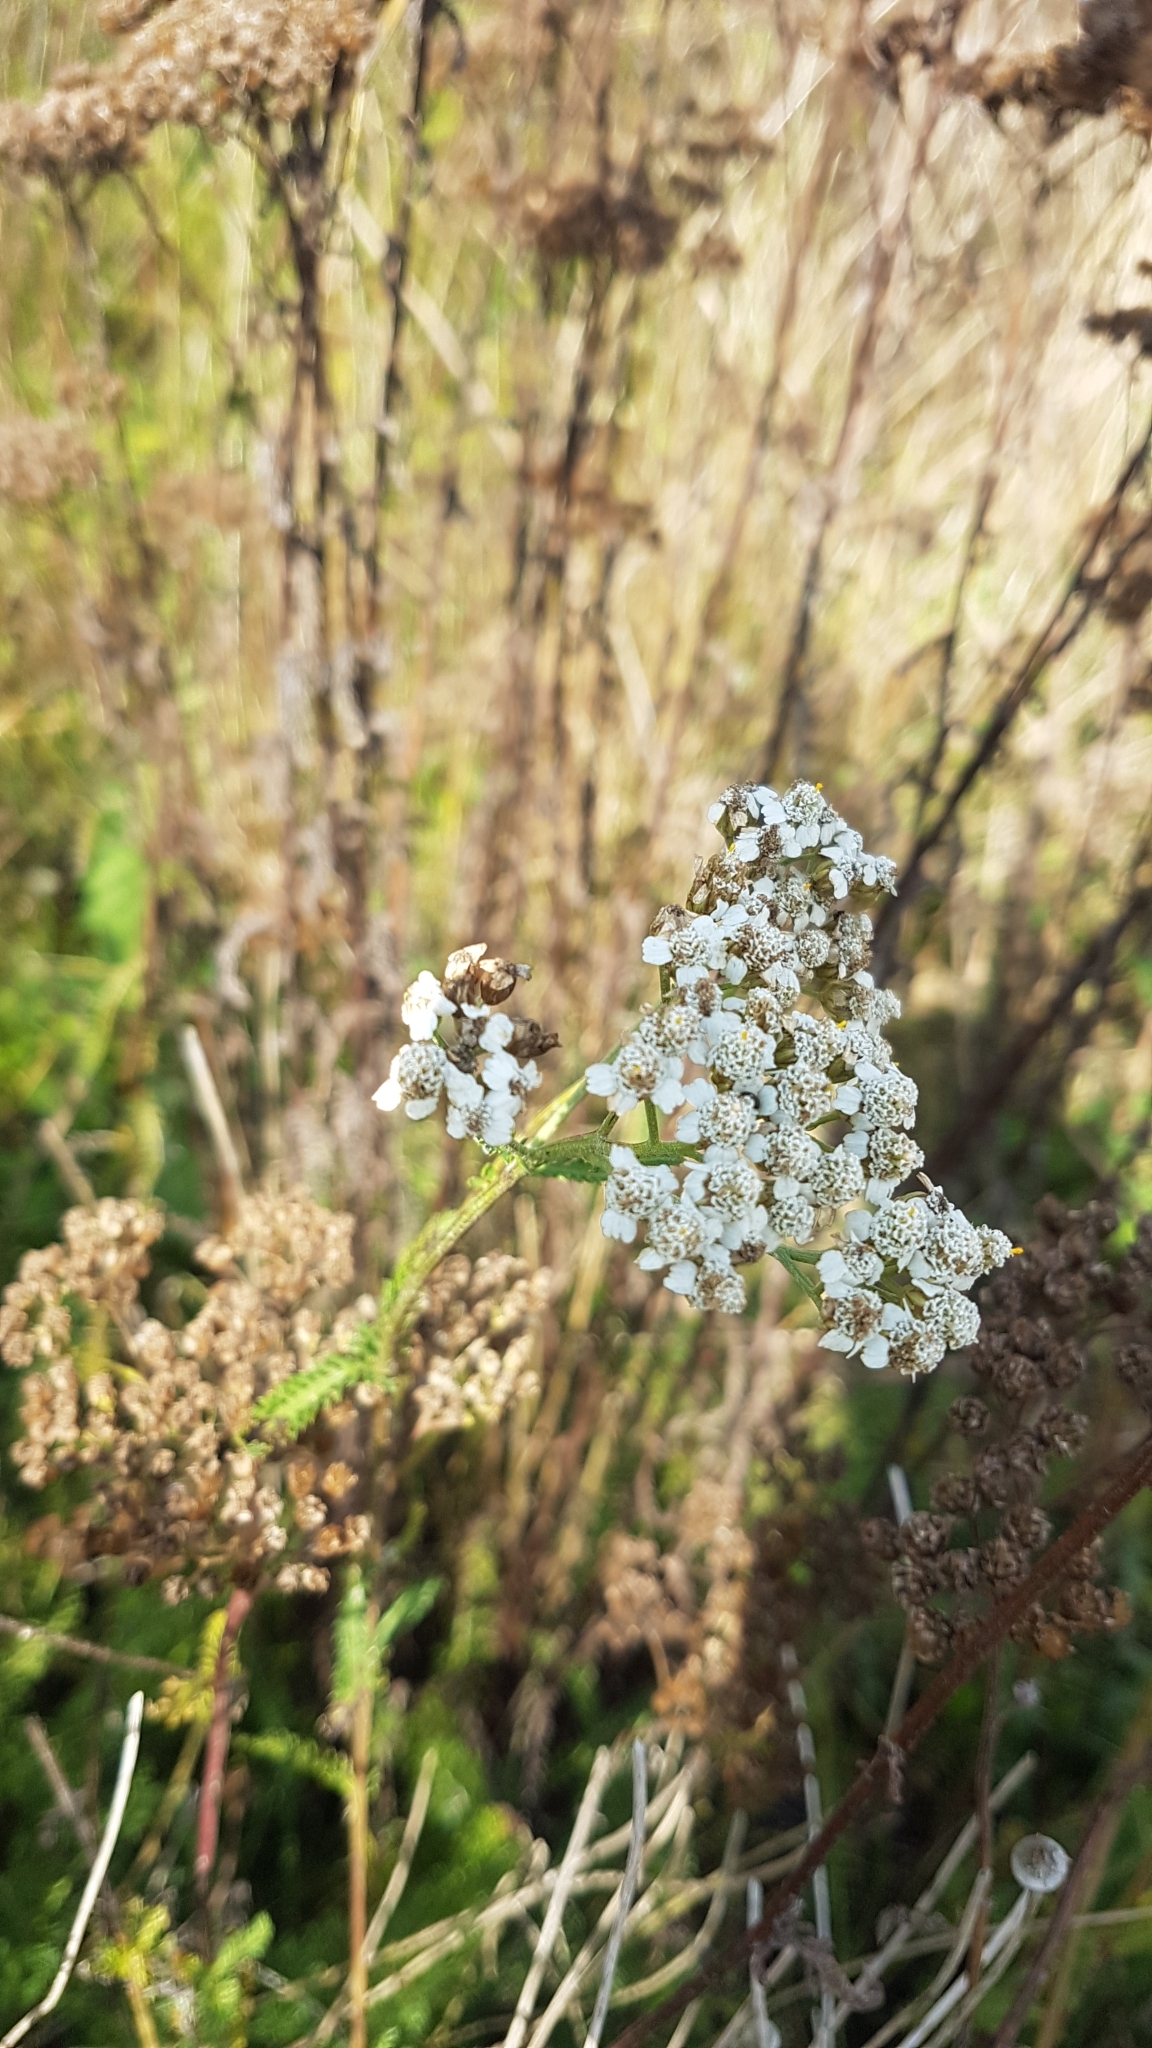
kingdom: Plantae
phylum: Tracheophyta
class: Magnoliopsida
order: Asterales
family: Asteraceae
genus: Achillea
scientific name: Achillea millefolium
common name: Yarrow
